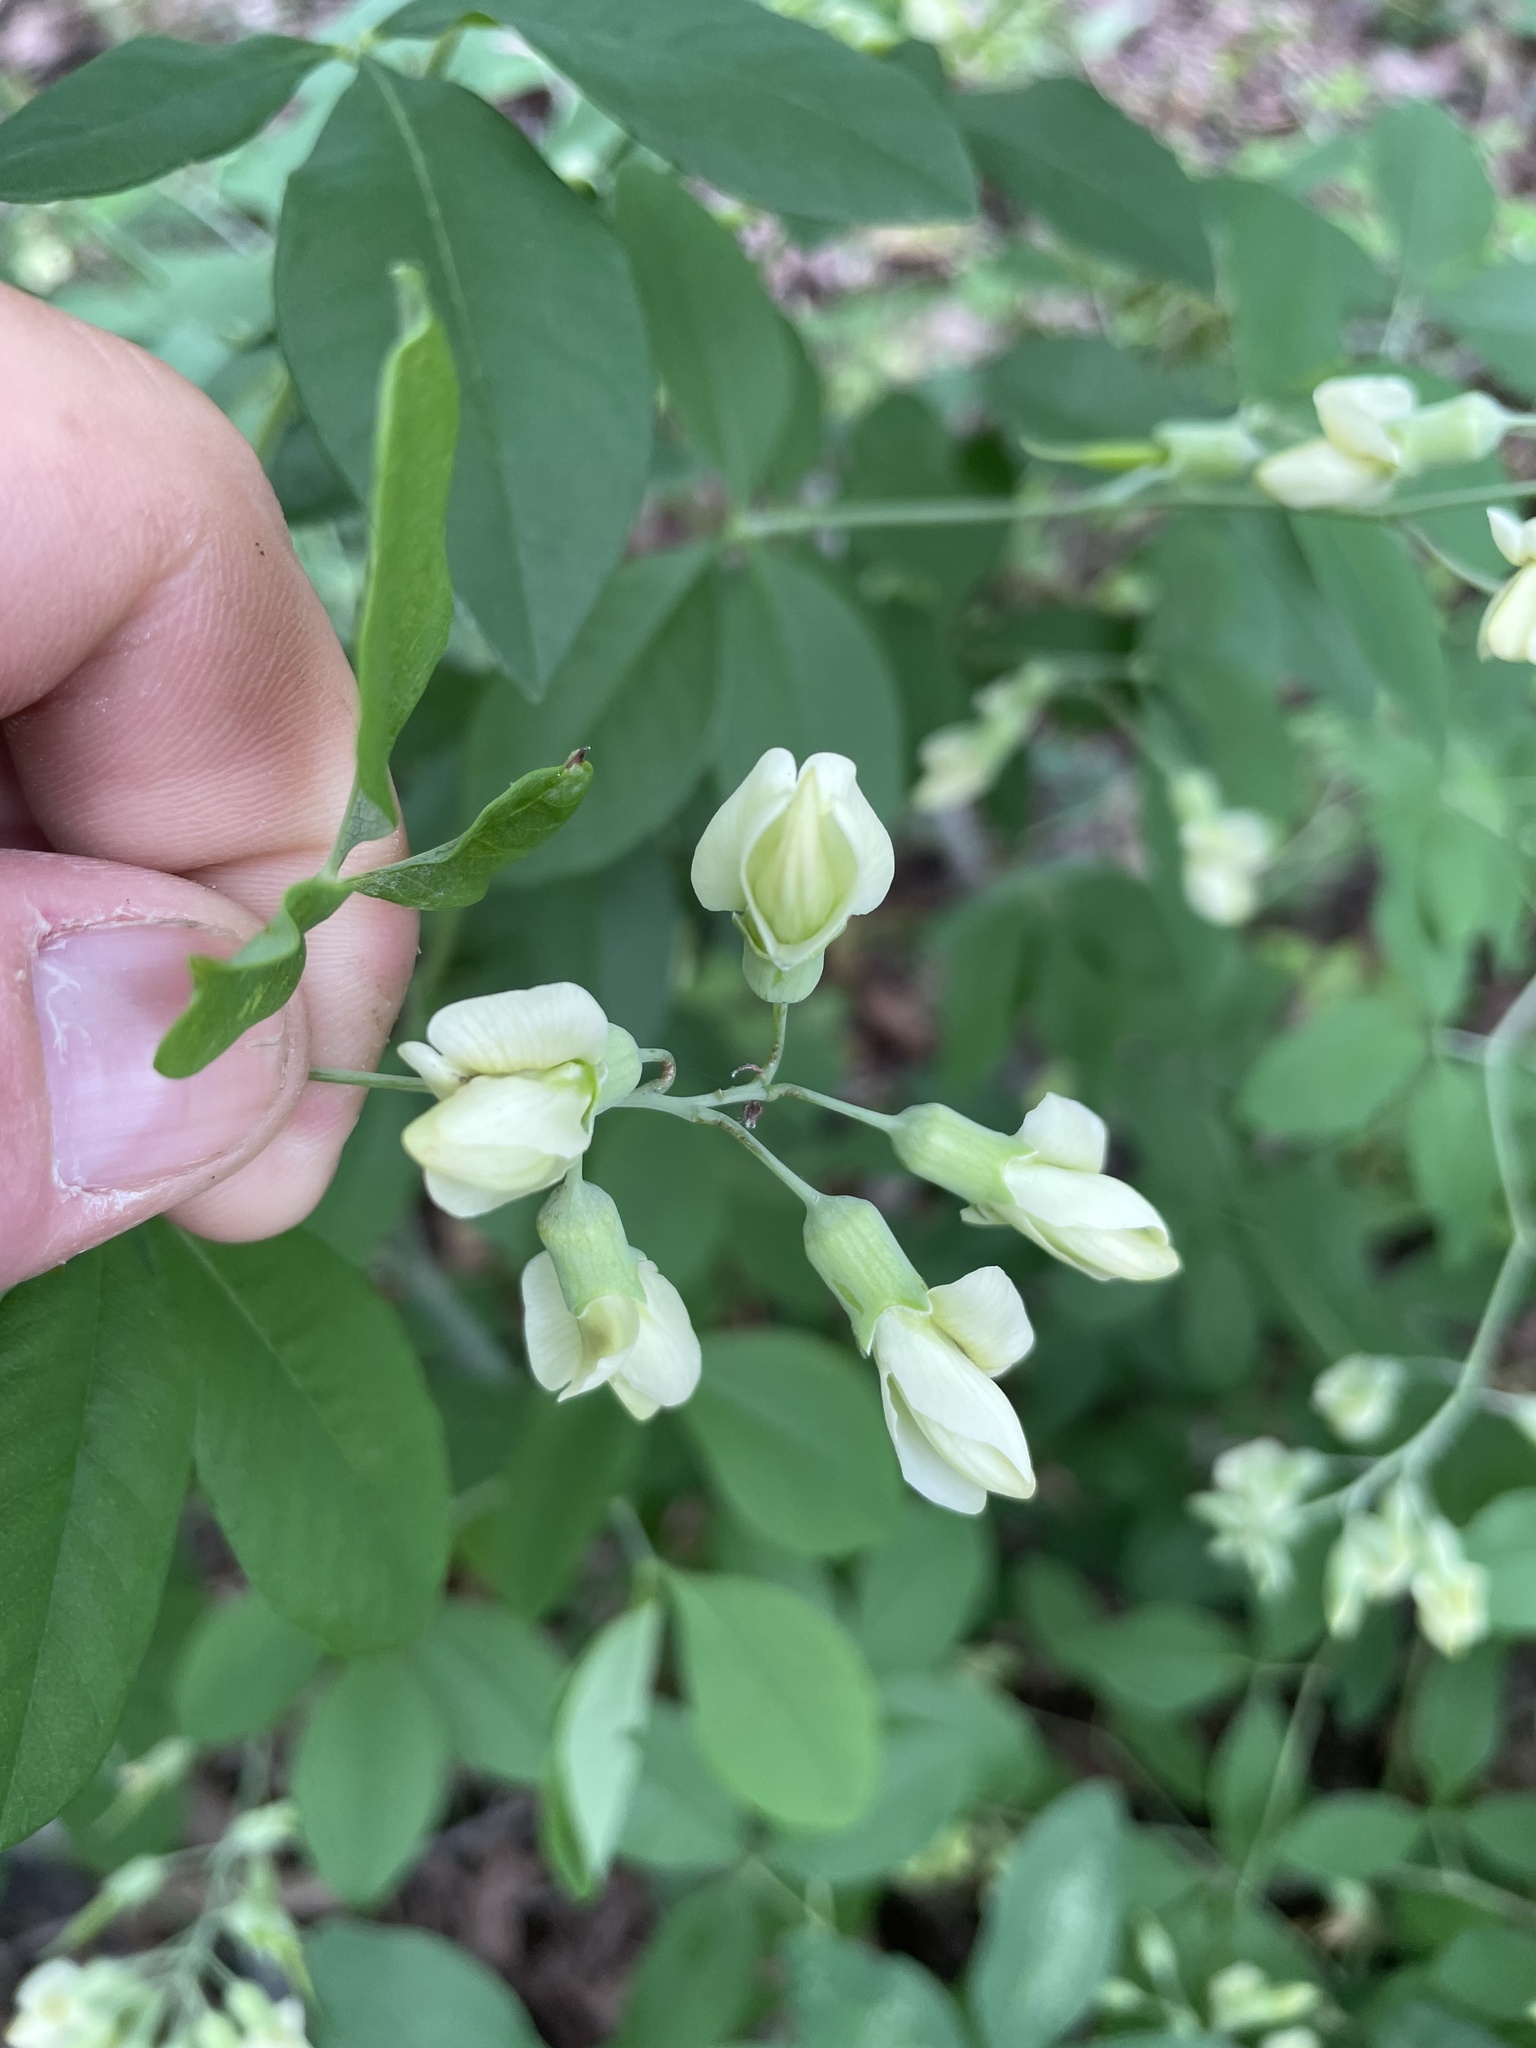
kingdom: Plantae
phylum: Tracheophyta
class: Magnoliopsida
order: Fabales
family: Fabaceae
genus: Baptisia
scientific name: Baptisia megacarpa
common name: Apalachicola wild indigo
